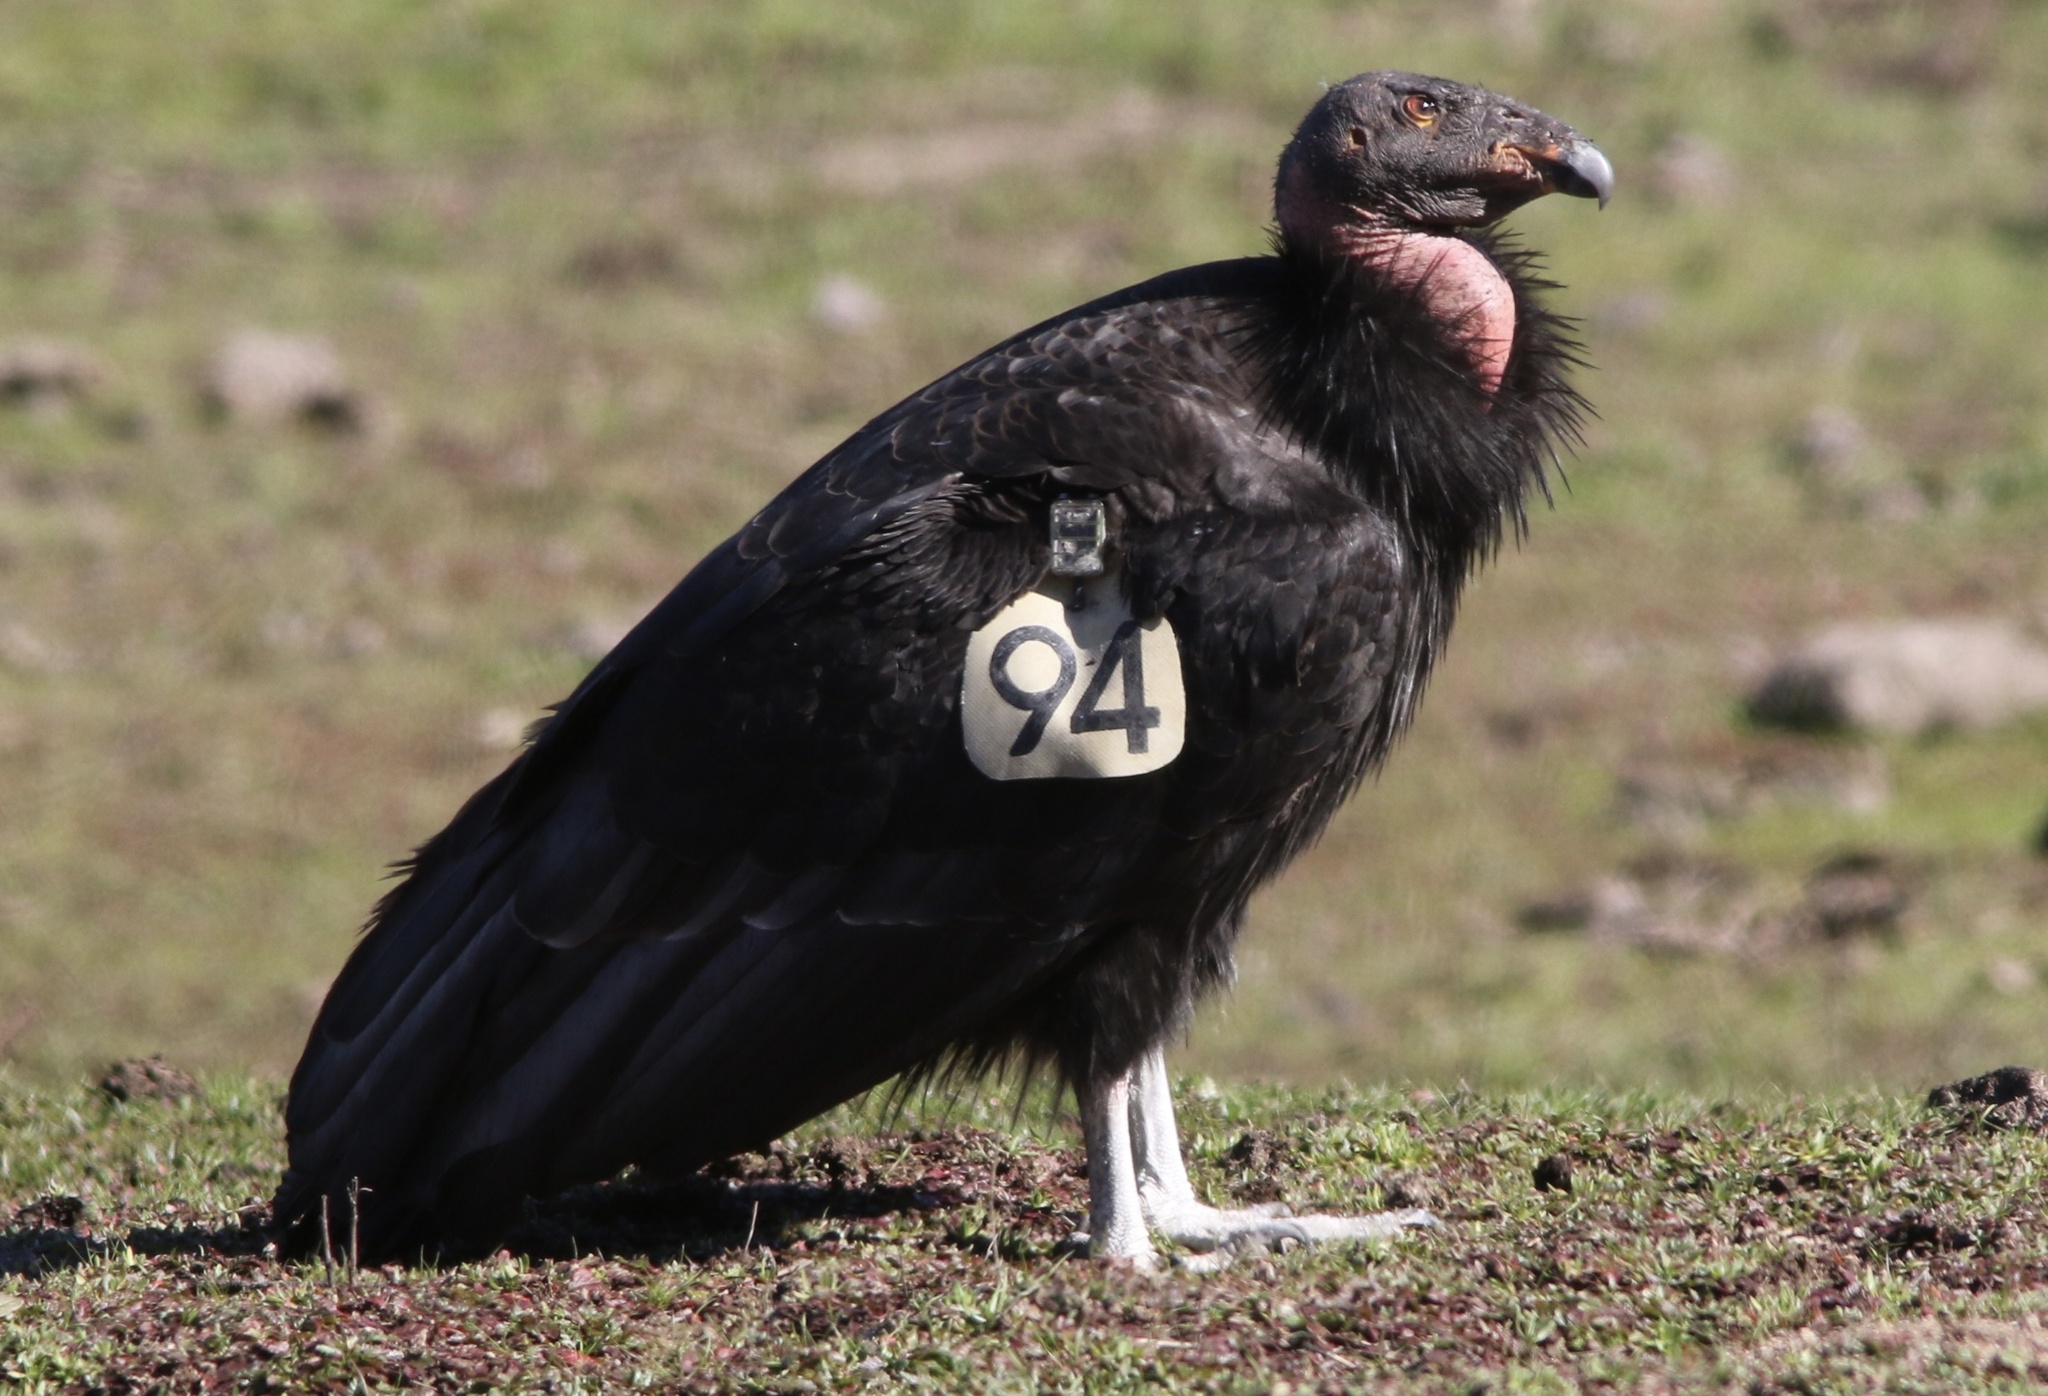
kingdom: Animalia
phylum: Chordata
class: Aves
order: Accipitriformes
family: Cathartidae
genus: Gymnogyps
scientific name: Gymnogyps californianus
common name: California condor
